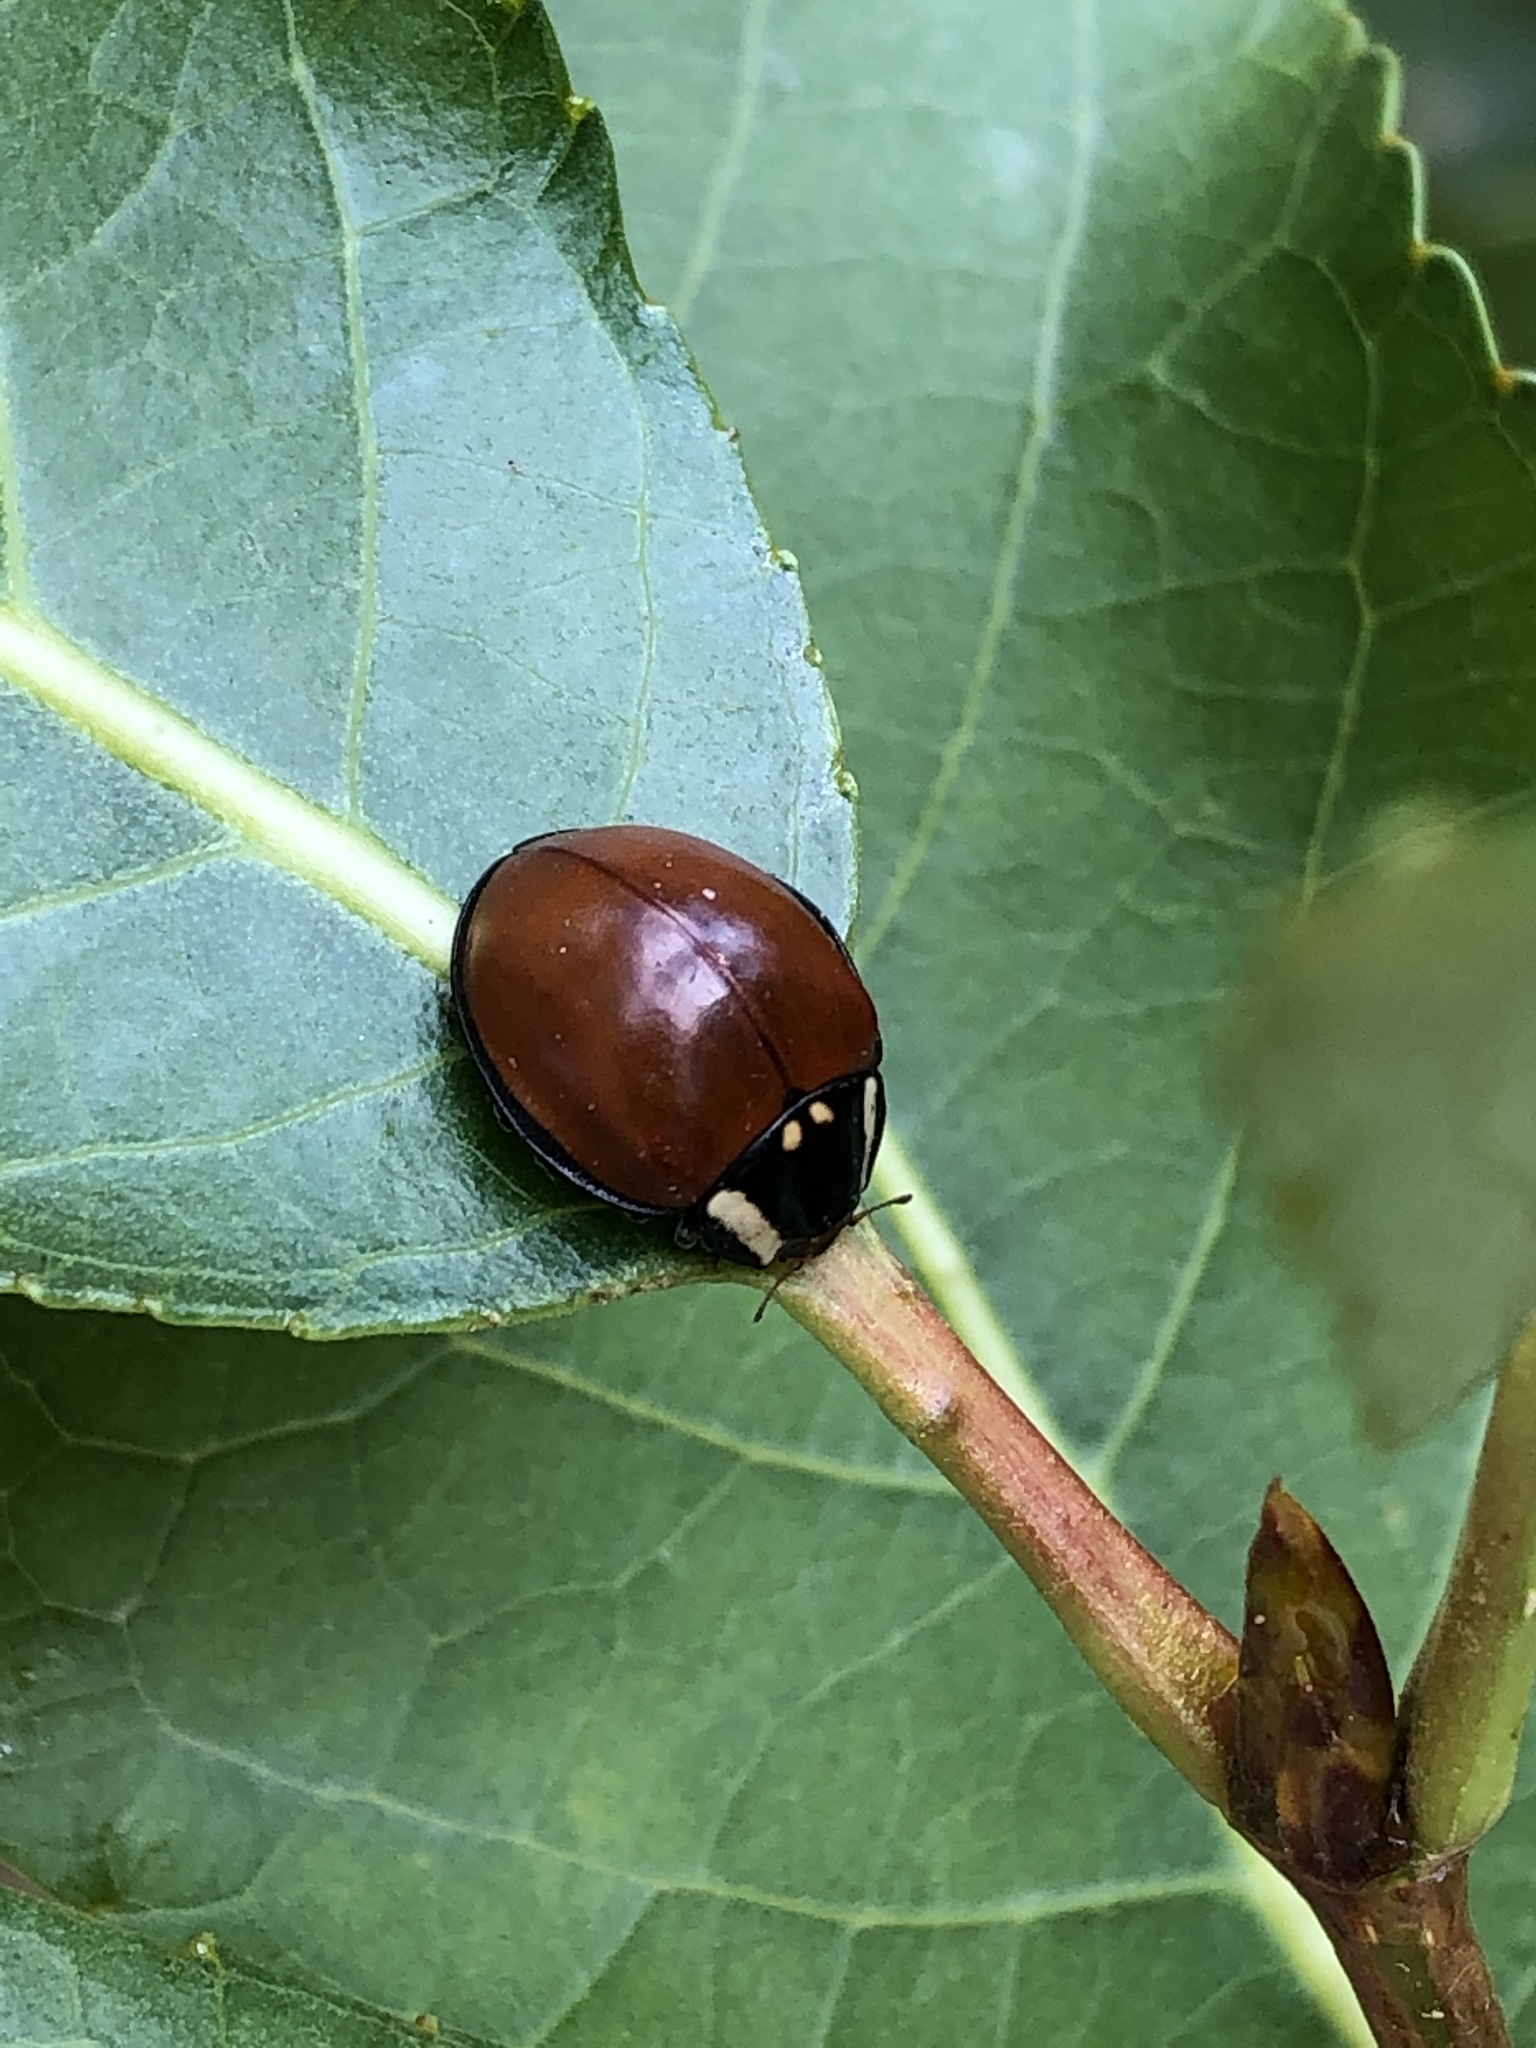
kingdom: Animalia
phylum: Arthropoda
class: Insecta
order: Coleoptera
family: Coccinellidae
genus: Anatis
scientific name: Anatis lecontei
